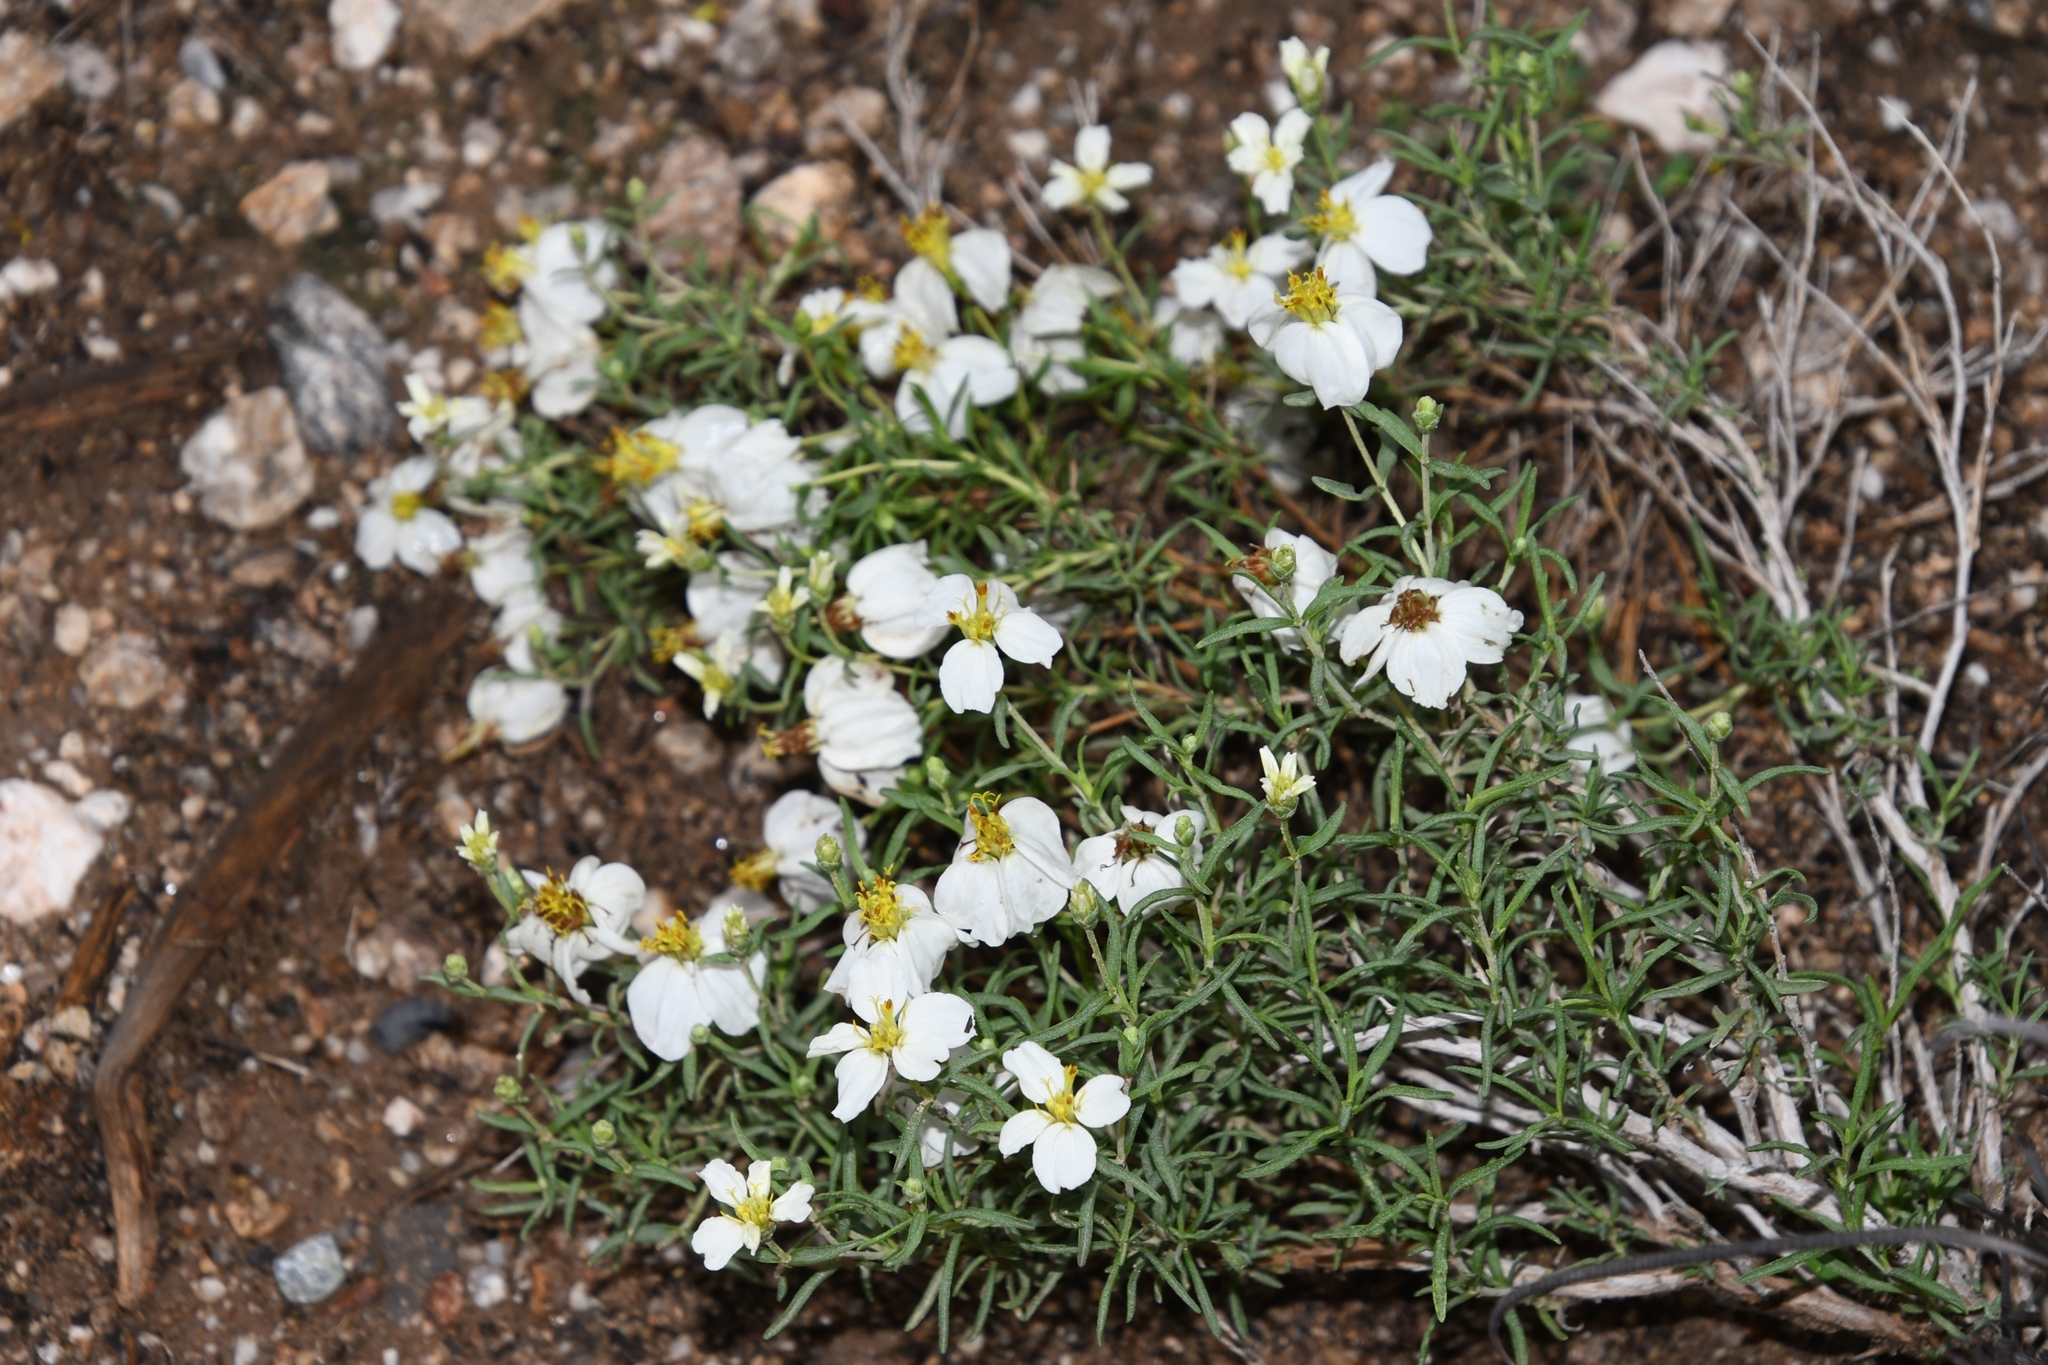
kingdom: Plantae
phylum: Tracheophyta
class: Magnoliopsida
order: Asterales
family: Asteraceae
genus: Zinnia
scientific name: Zinnia acerosa
